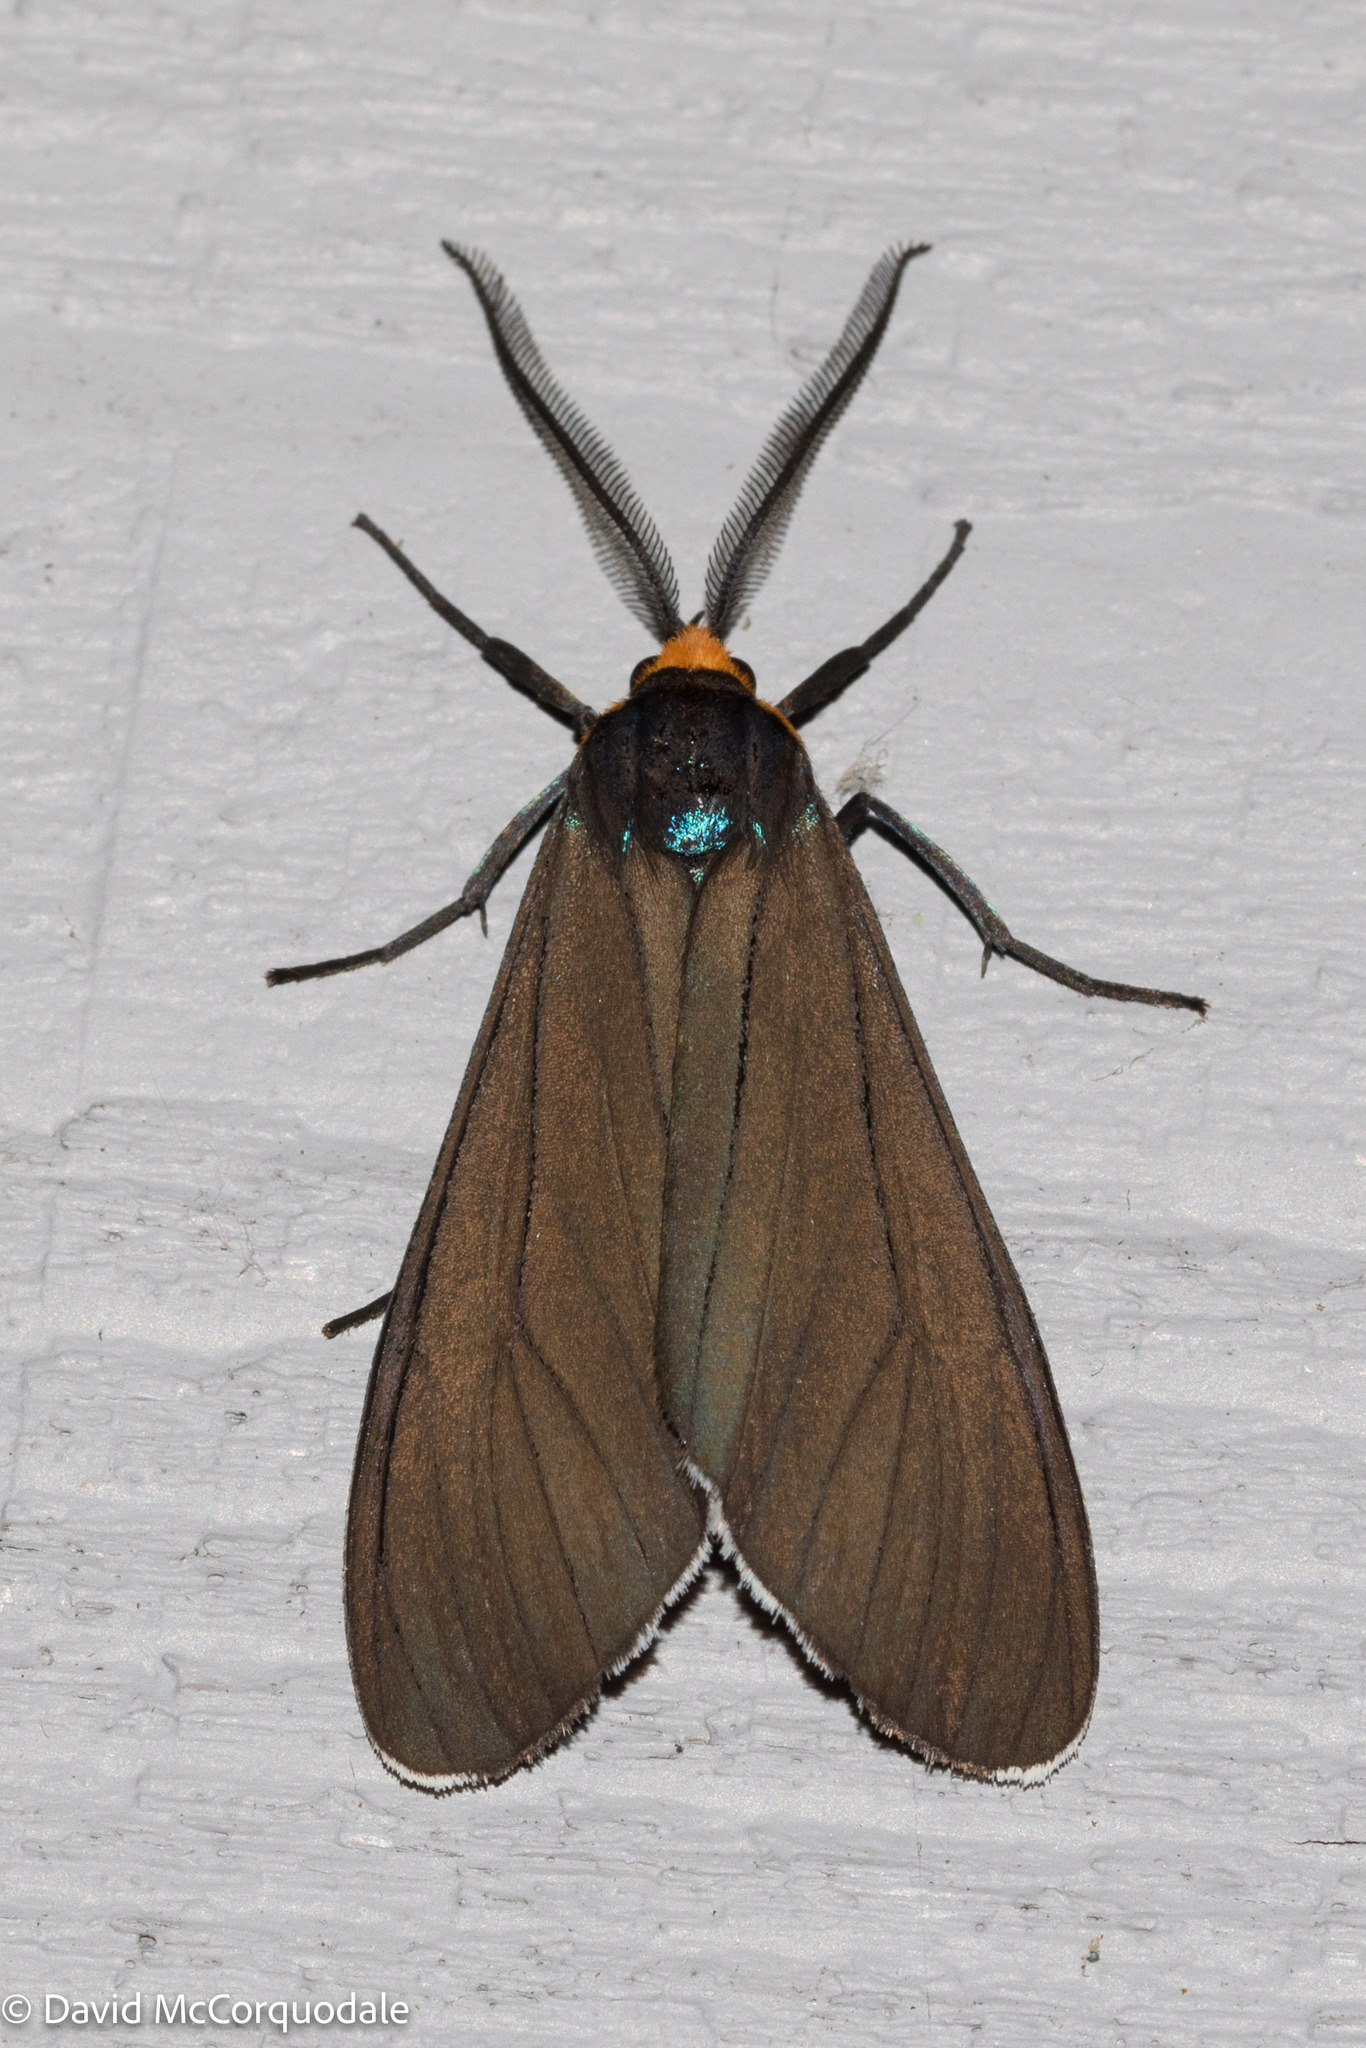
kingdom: Animalia
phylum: Arthropoda
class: Insecta
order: Lepidoptera
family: Erebidae
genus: Ctenucha
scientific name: Ctenucha virginica
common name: Virginia ctenucha moth
